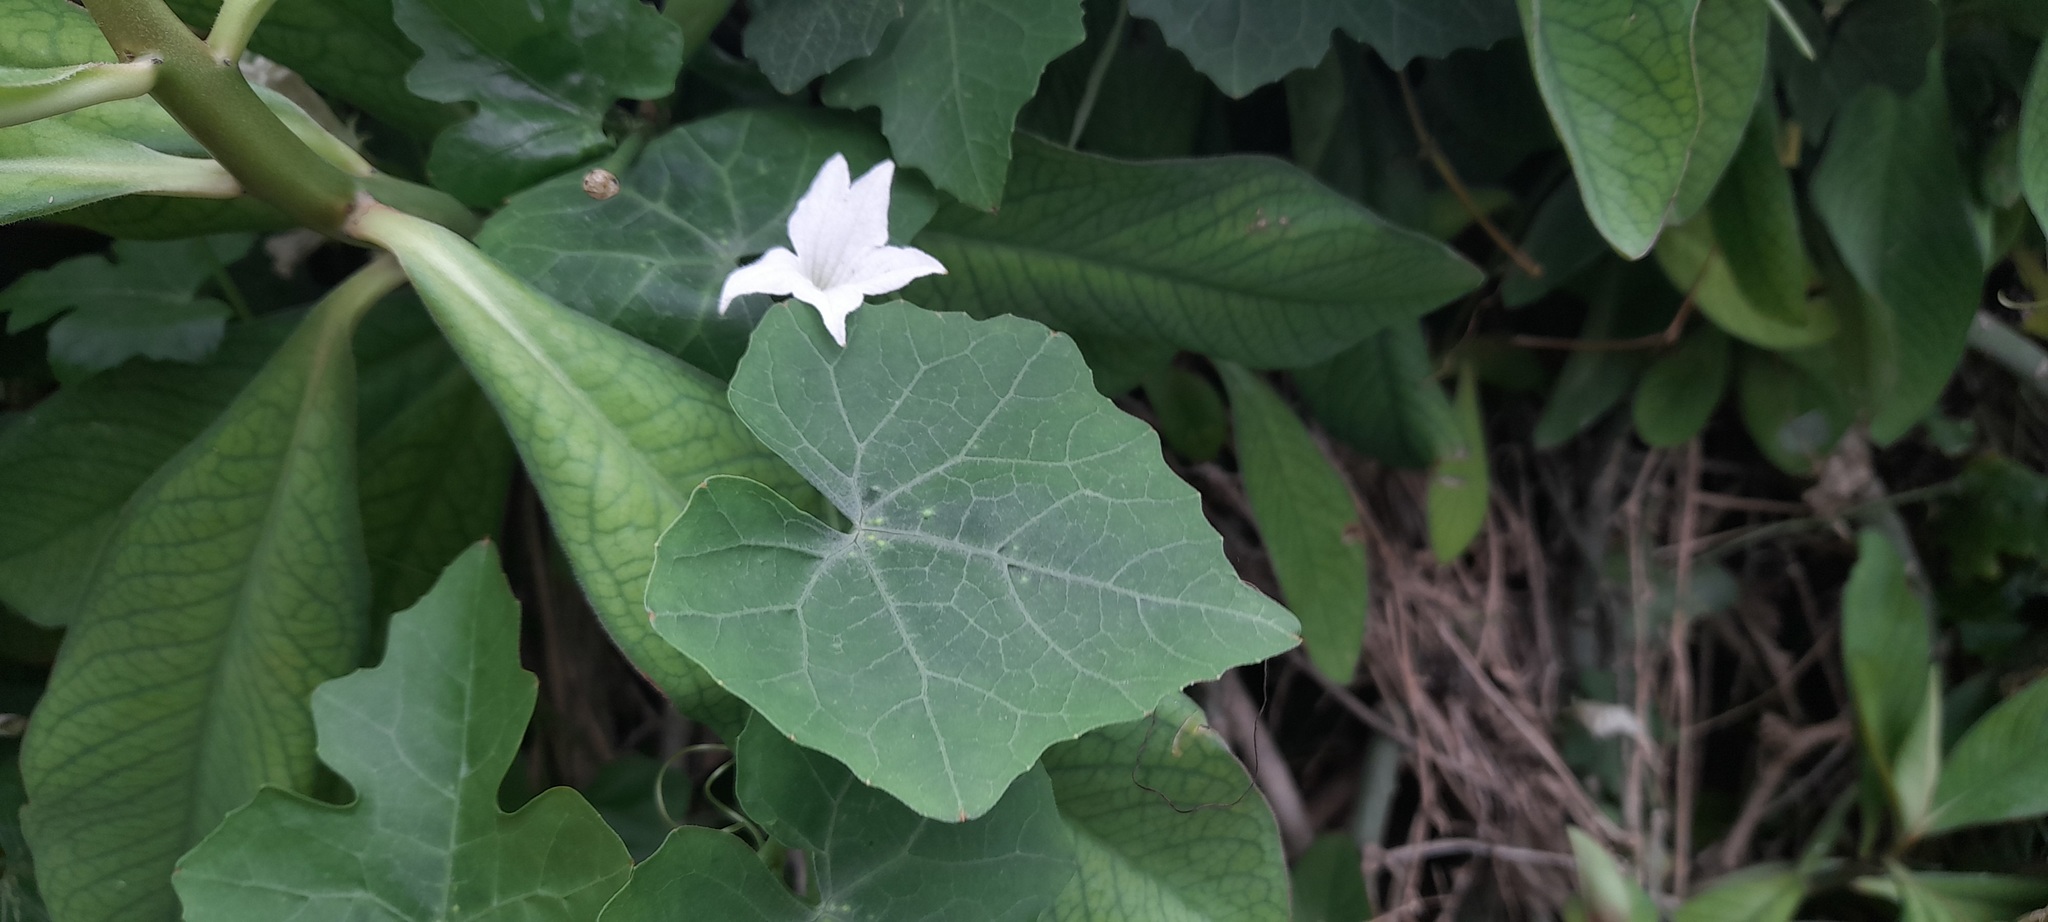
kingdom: Plantae
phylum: Tracheophyta
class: Magnoliopsida
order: Cucurbitales
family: Cucurbitaceae
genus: Coccinia
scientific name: Coccinia grandis
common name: Ivy gourd
